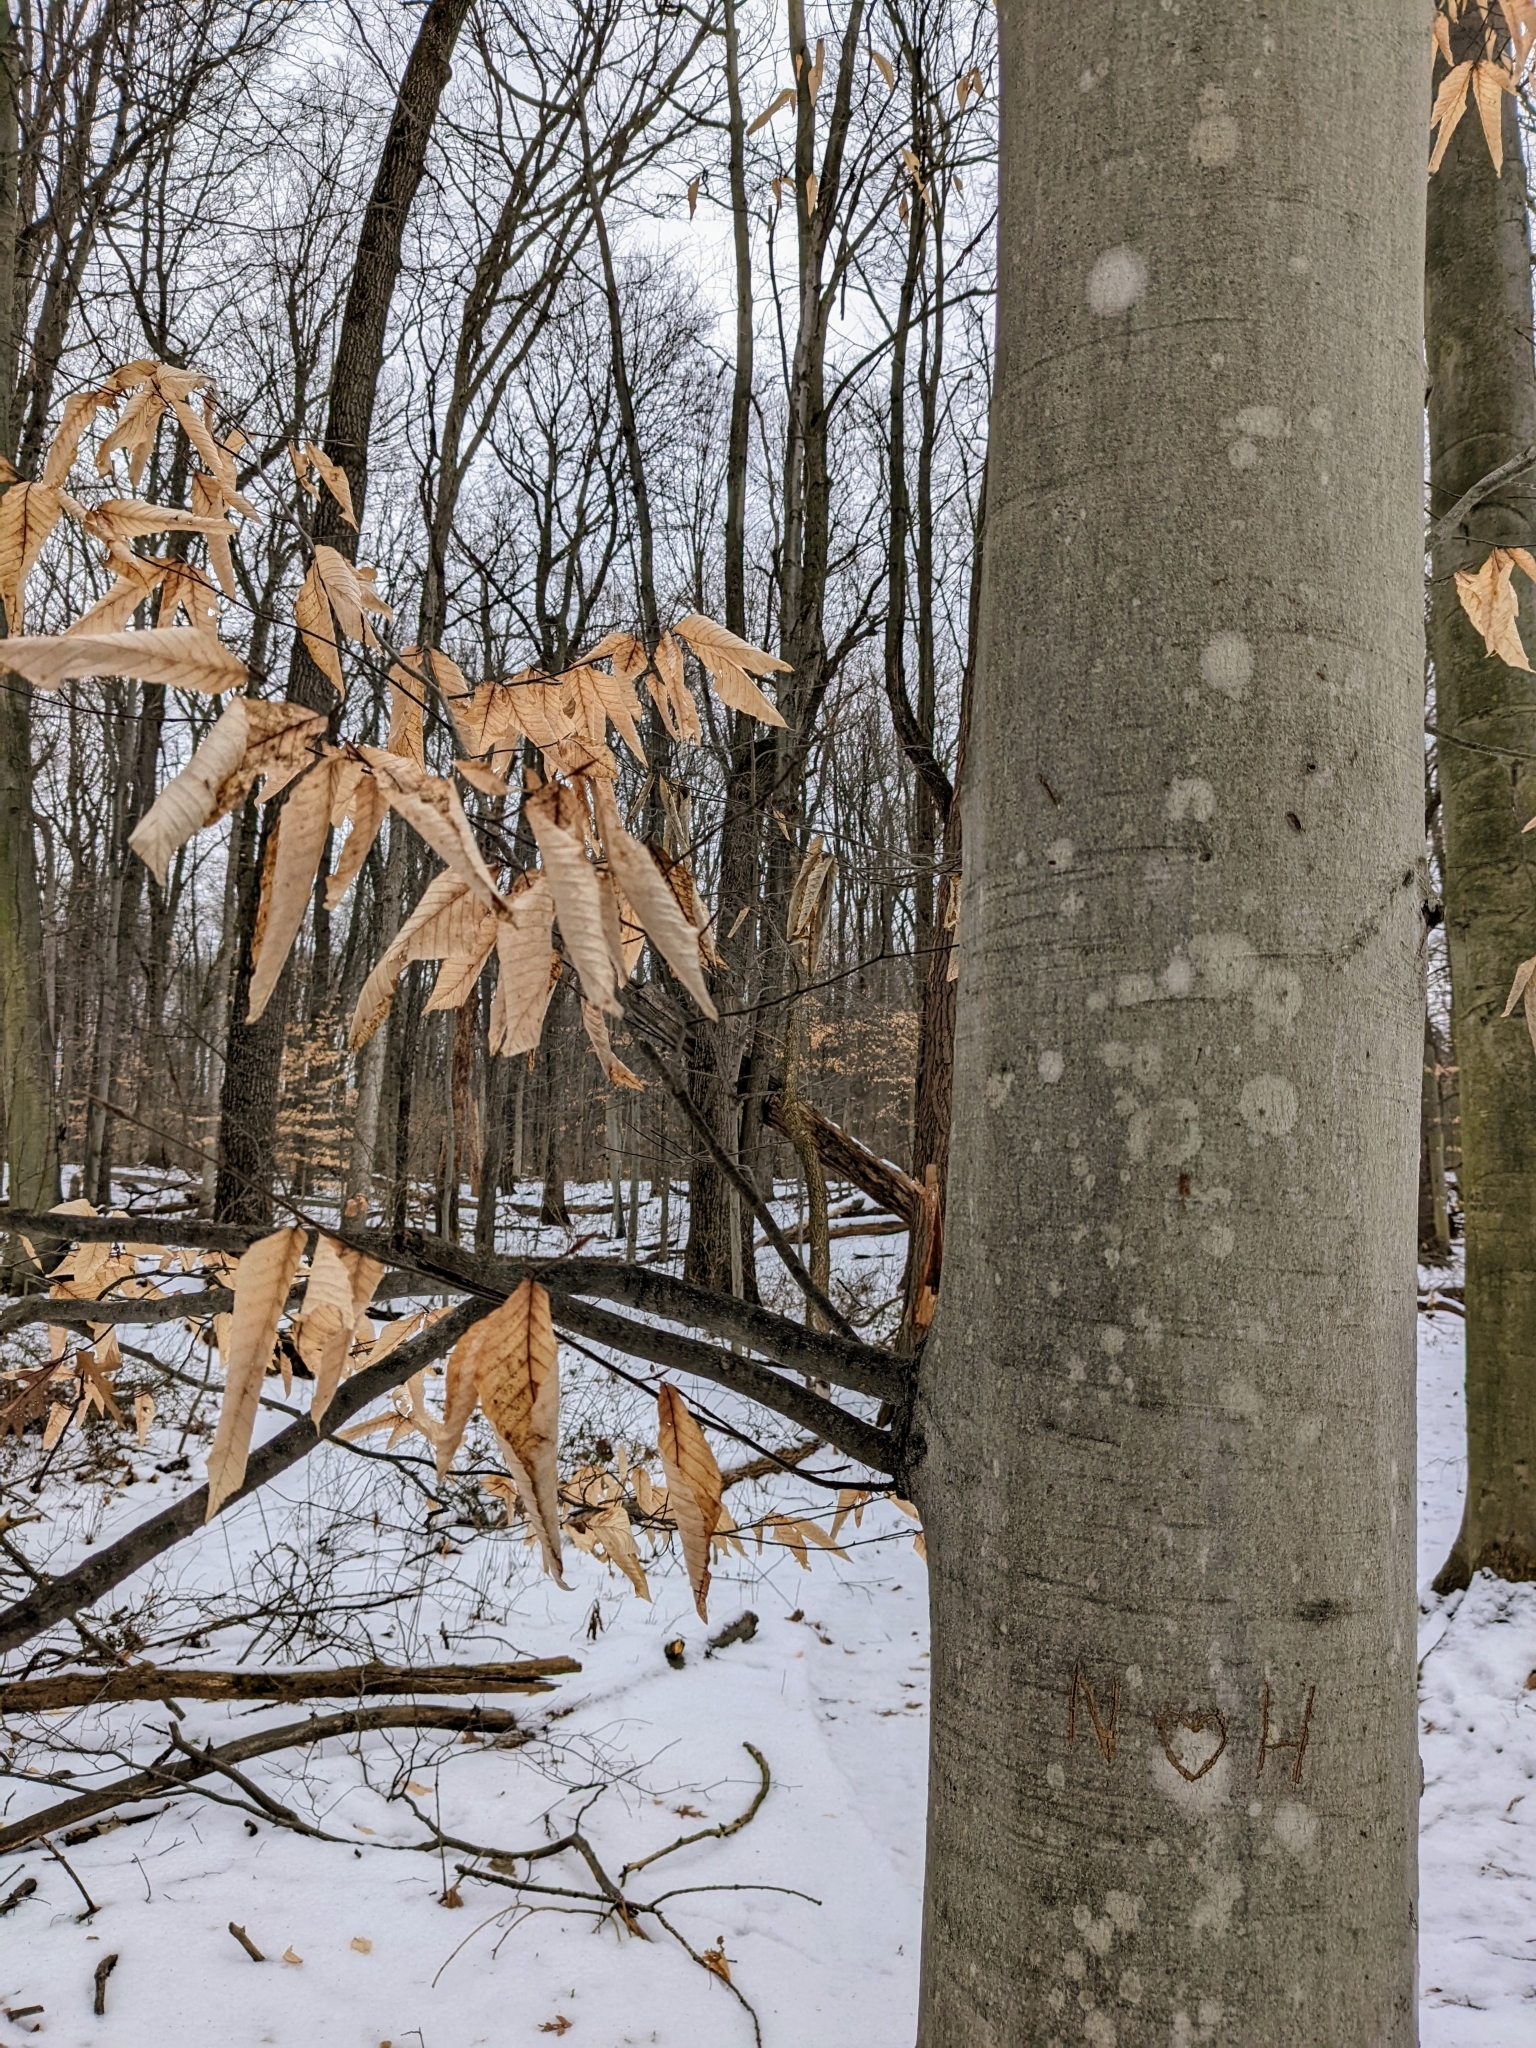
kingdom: Plantae
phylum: Tracheophyta
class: Magnoliopsida
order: Fagales
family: Fagaceae
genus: Fagus
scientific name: Fagus grandifolia
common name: American beech
